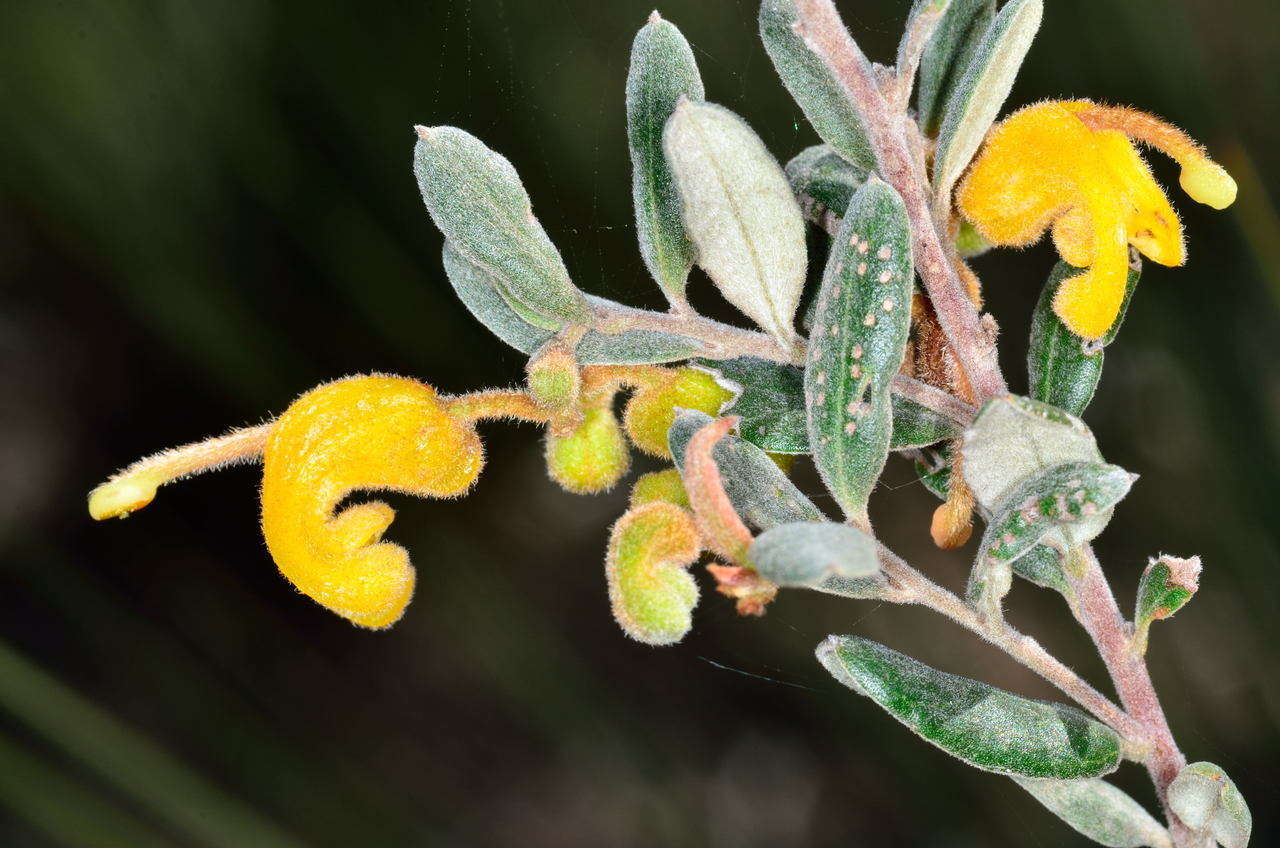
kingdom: Plantae
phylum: Tracheophyta
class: Magnoliopsida
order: Proteales
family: Proteaceae
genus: Grevillea
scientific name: Grevillea chrysophaea
